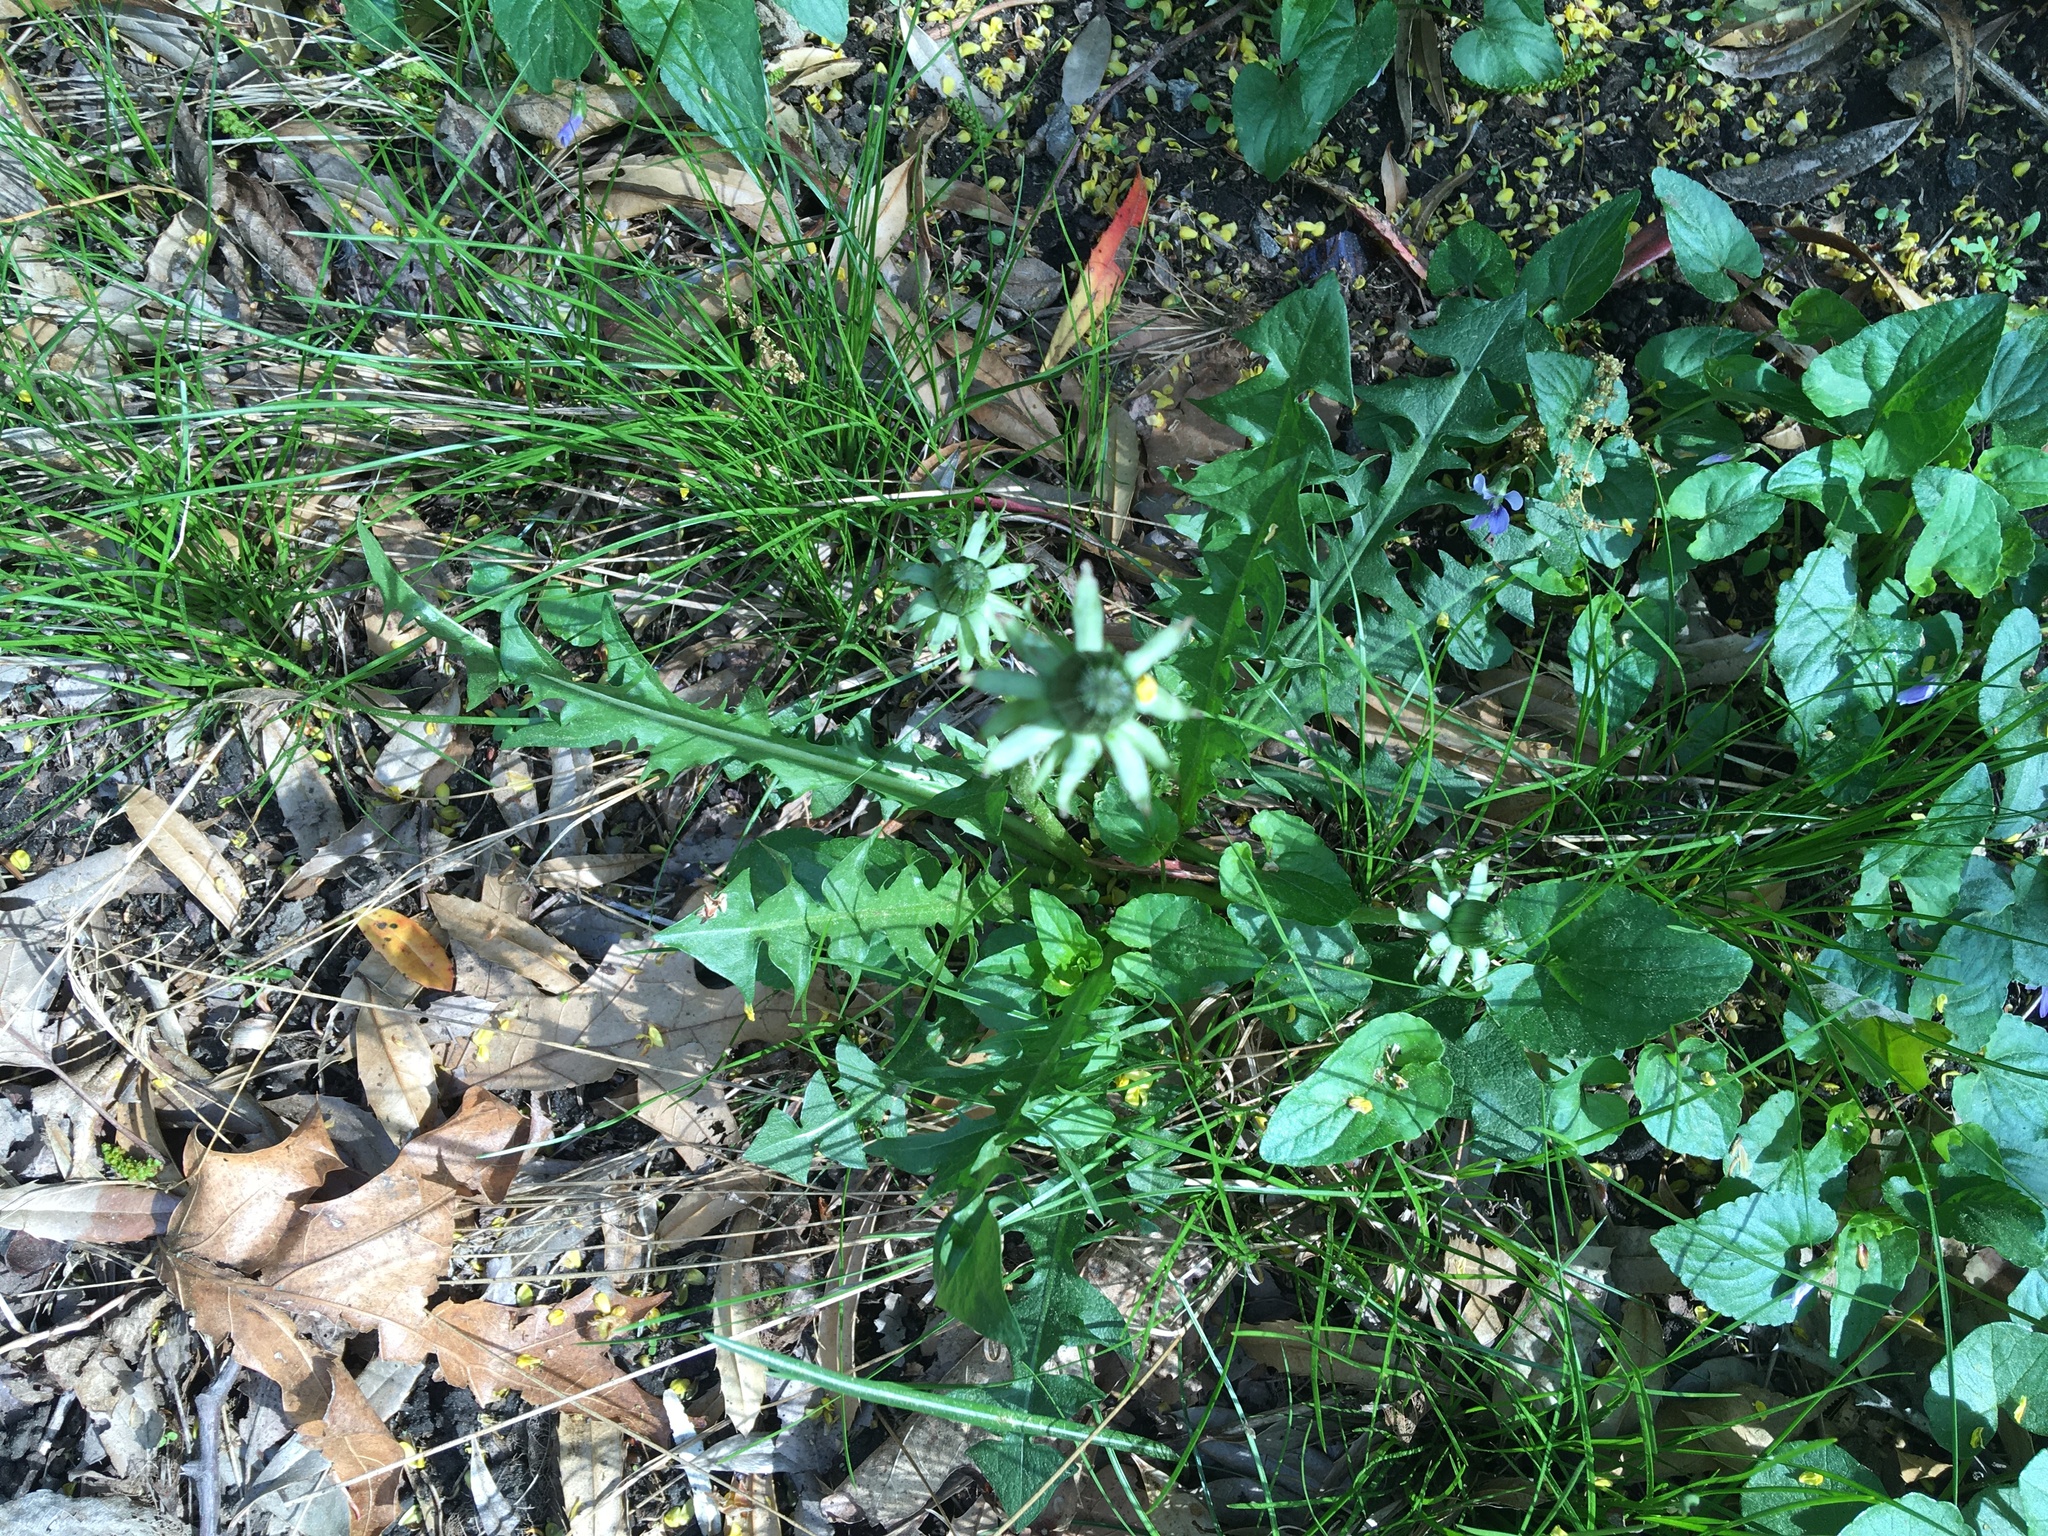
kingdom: Plantae
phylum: Tracheophyta
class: Magnoliopsida
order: Asterales
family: Asteraceae
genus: Taraxacum
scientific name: Taraxacum officinale
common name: Common dandelion
